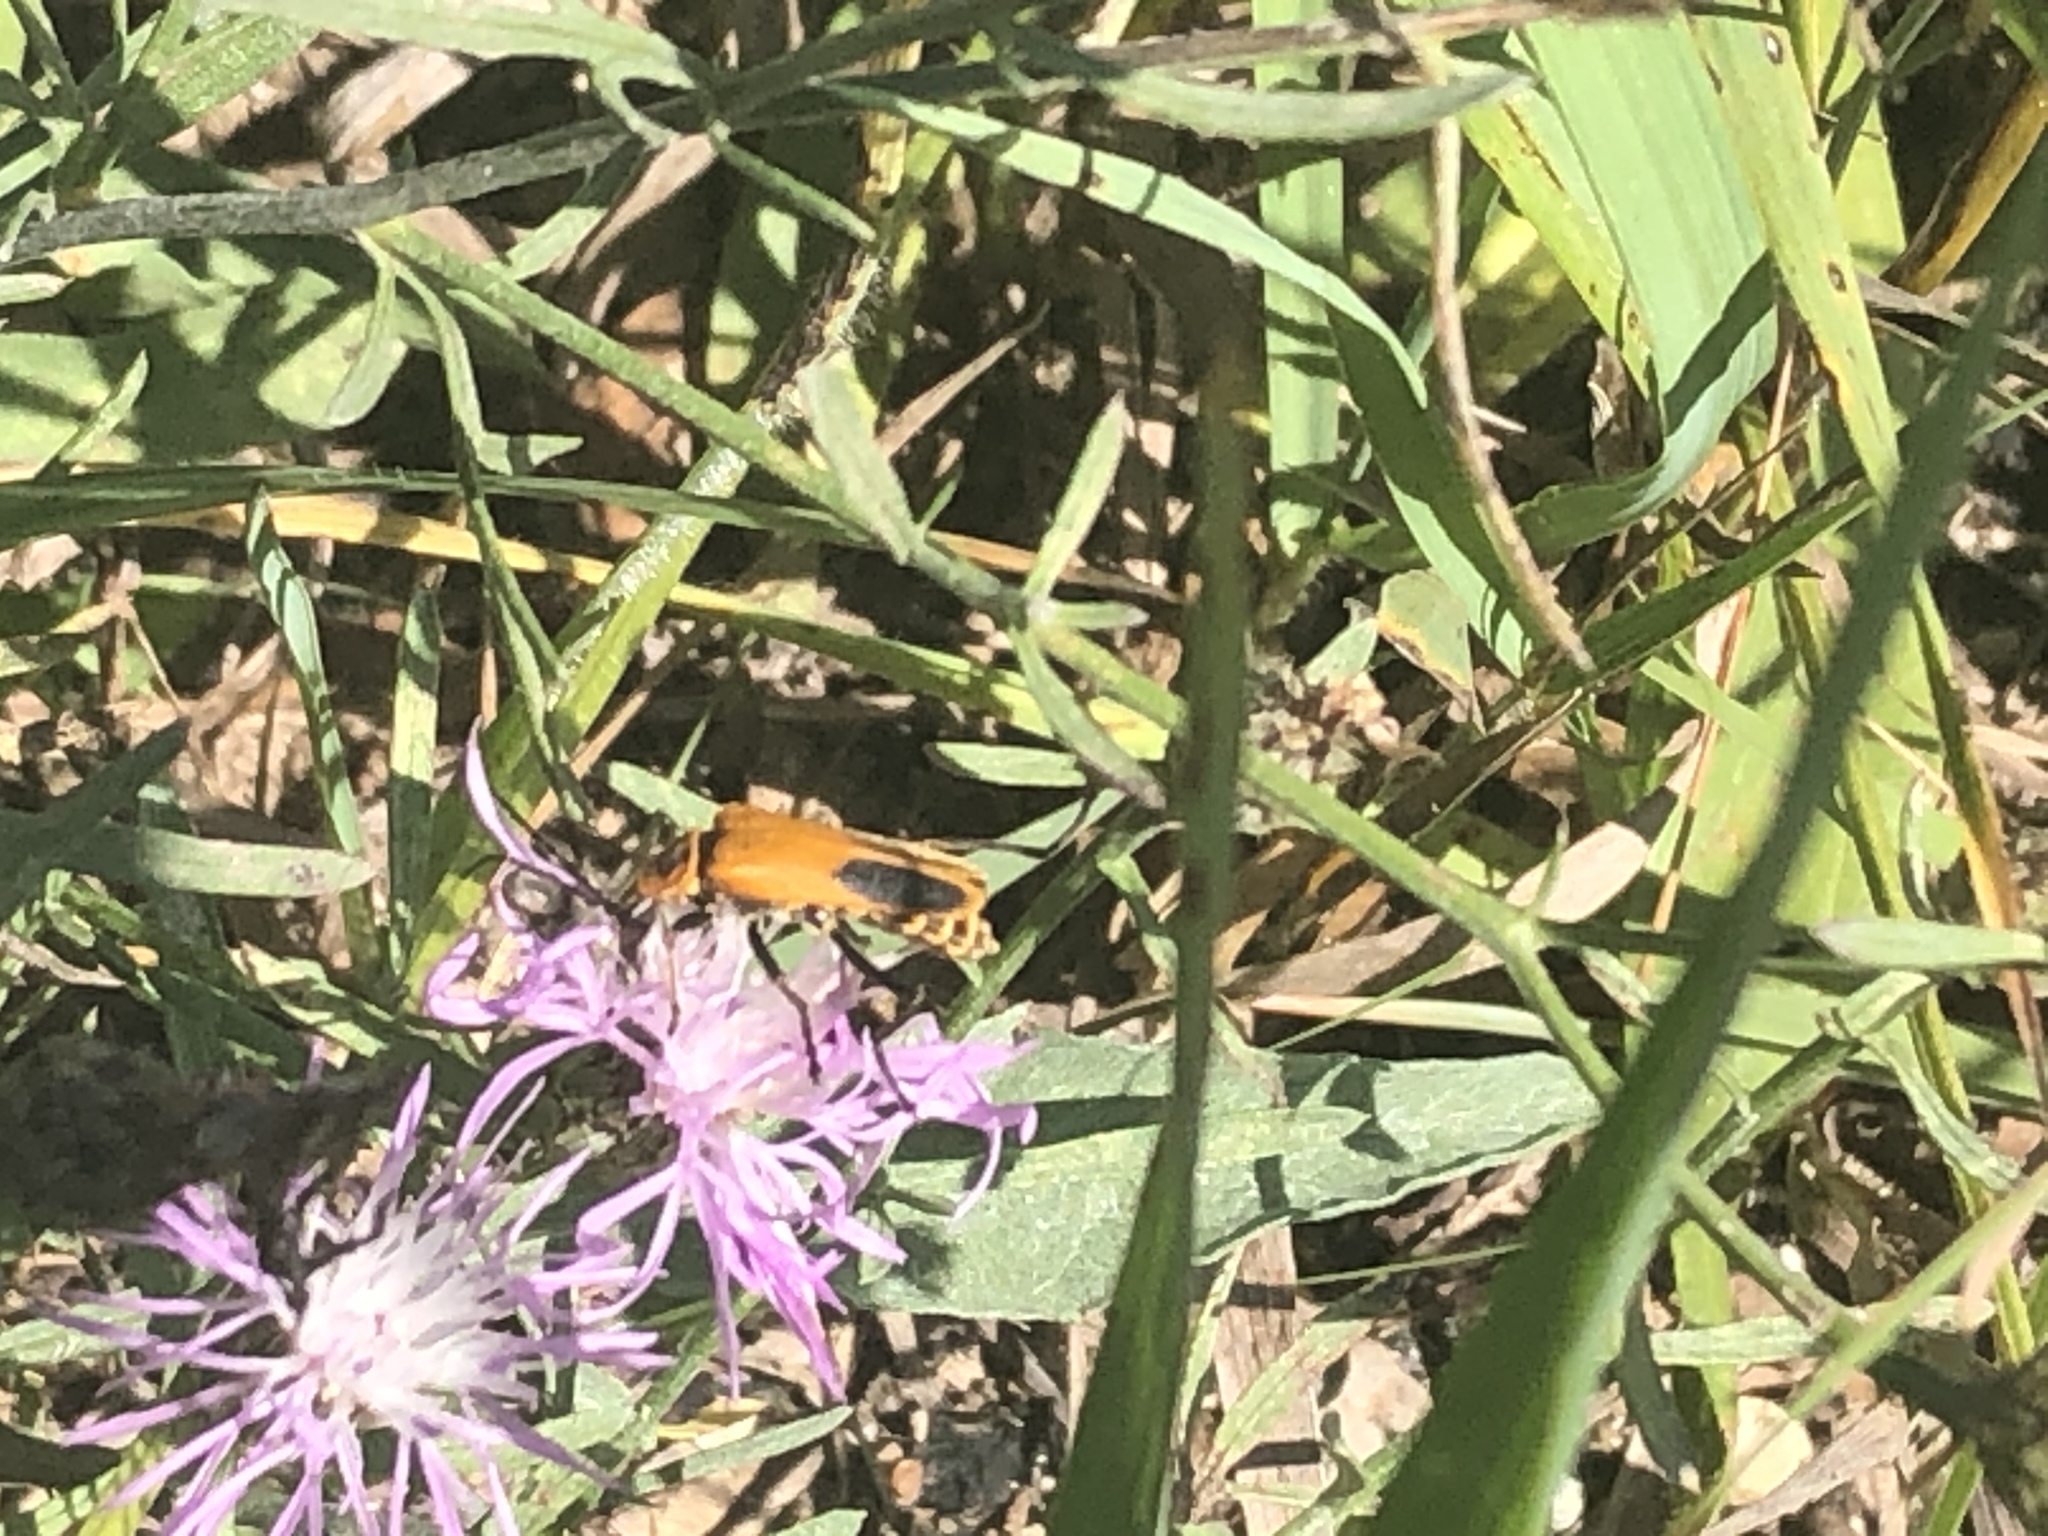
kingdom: Animalia
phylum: Arthropoda
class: Insecta
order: Coleoptera
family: Cantharidae
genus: Chauliognathus
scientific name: Chauliognathus pensylvanicus
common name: Goldenrod soldier beetle
